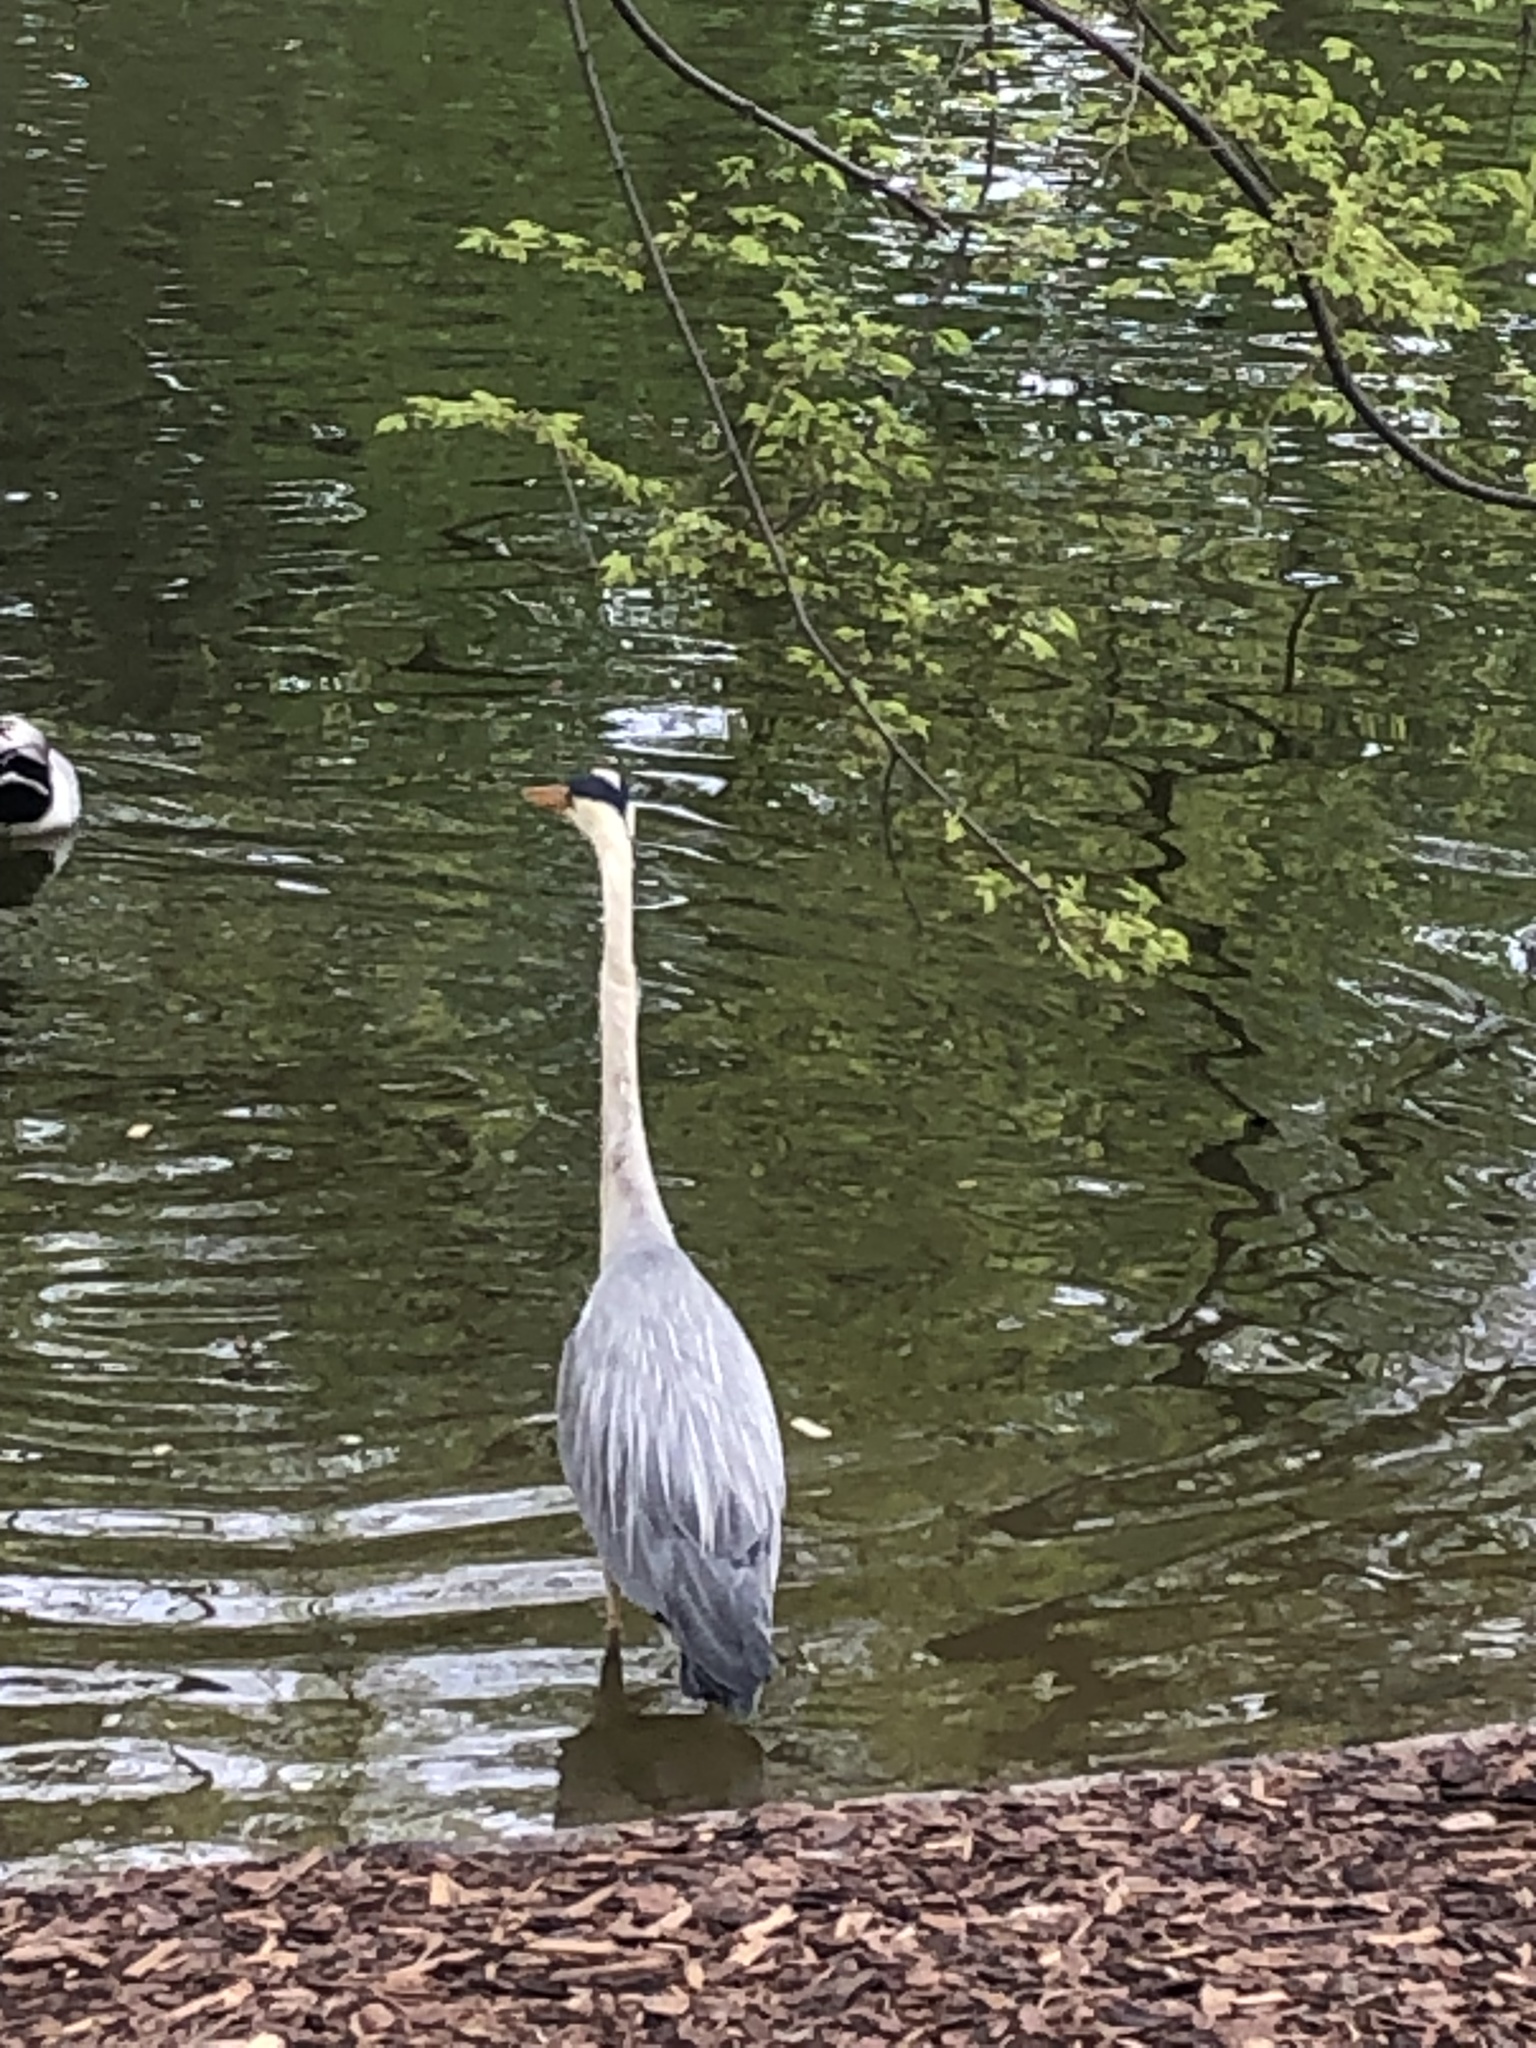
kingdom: Animalia
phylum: Chordata
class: Aves
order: Pelecaniformes
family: Ardeidae
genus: Ardea
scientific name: Ardea cinerea
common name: Grey heron
